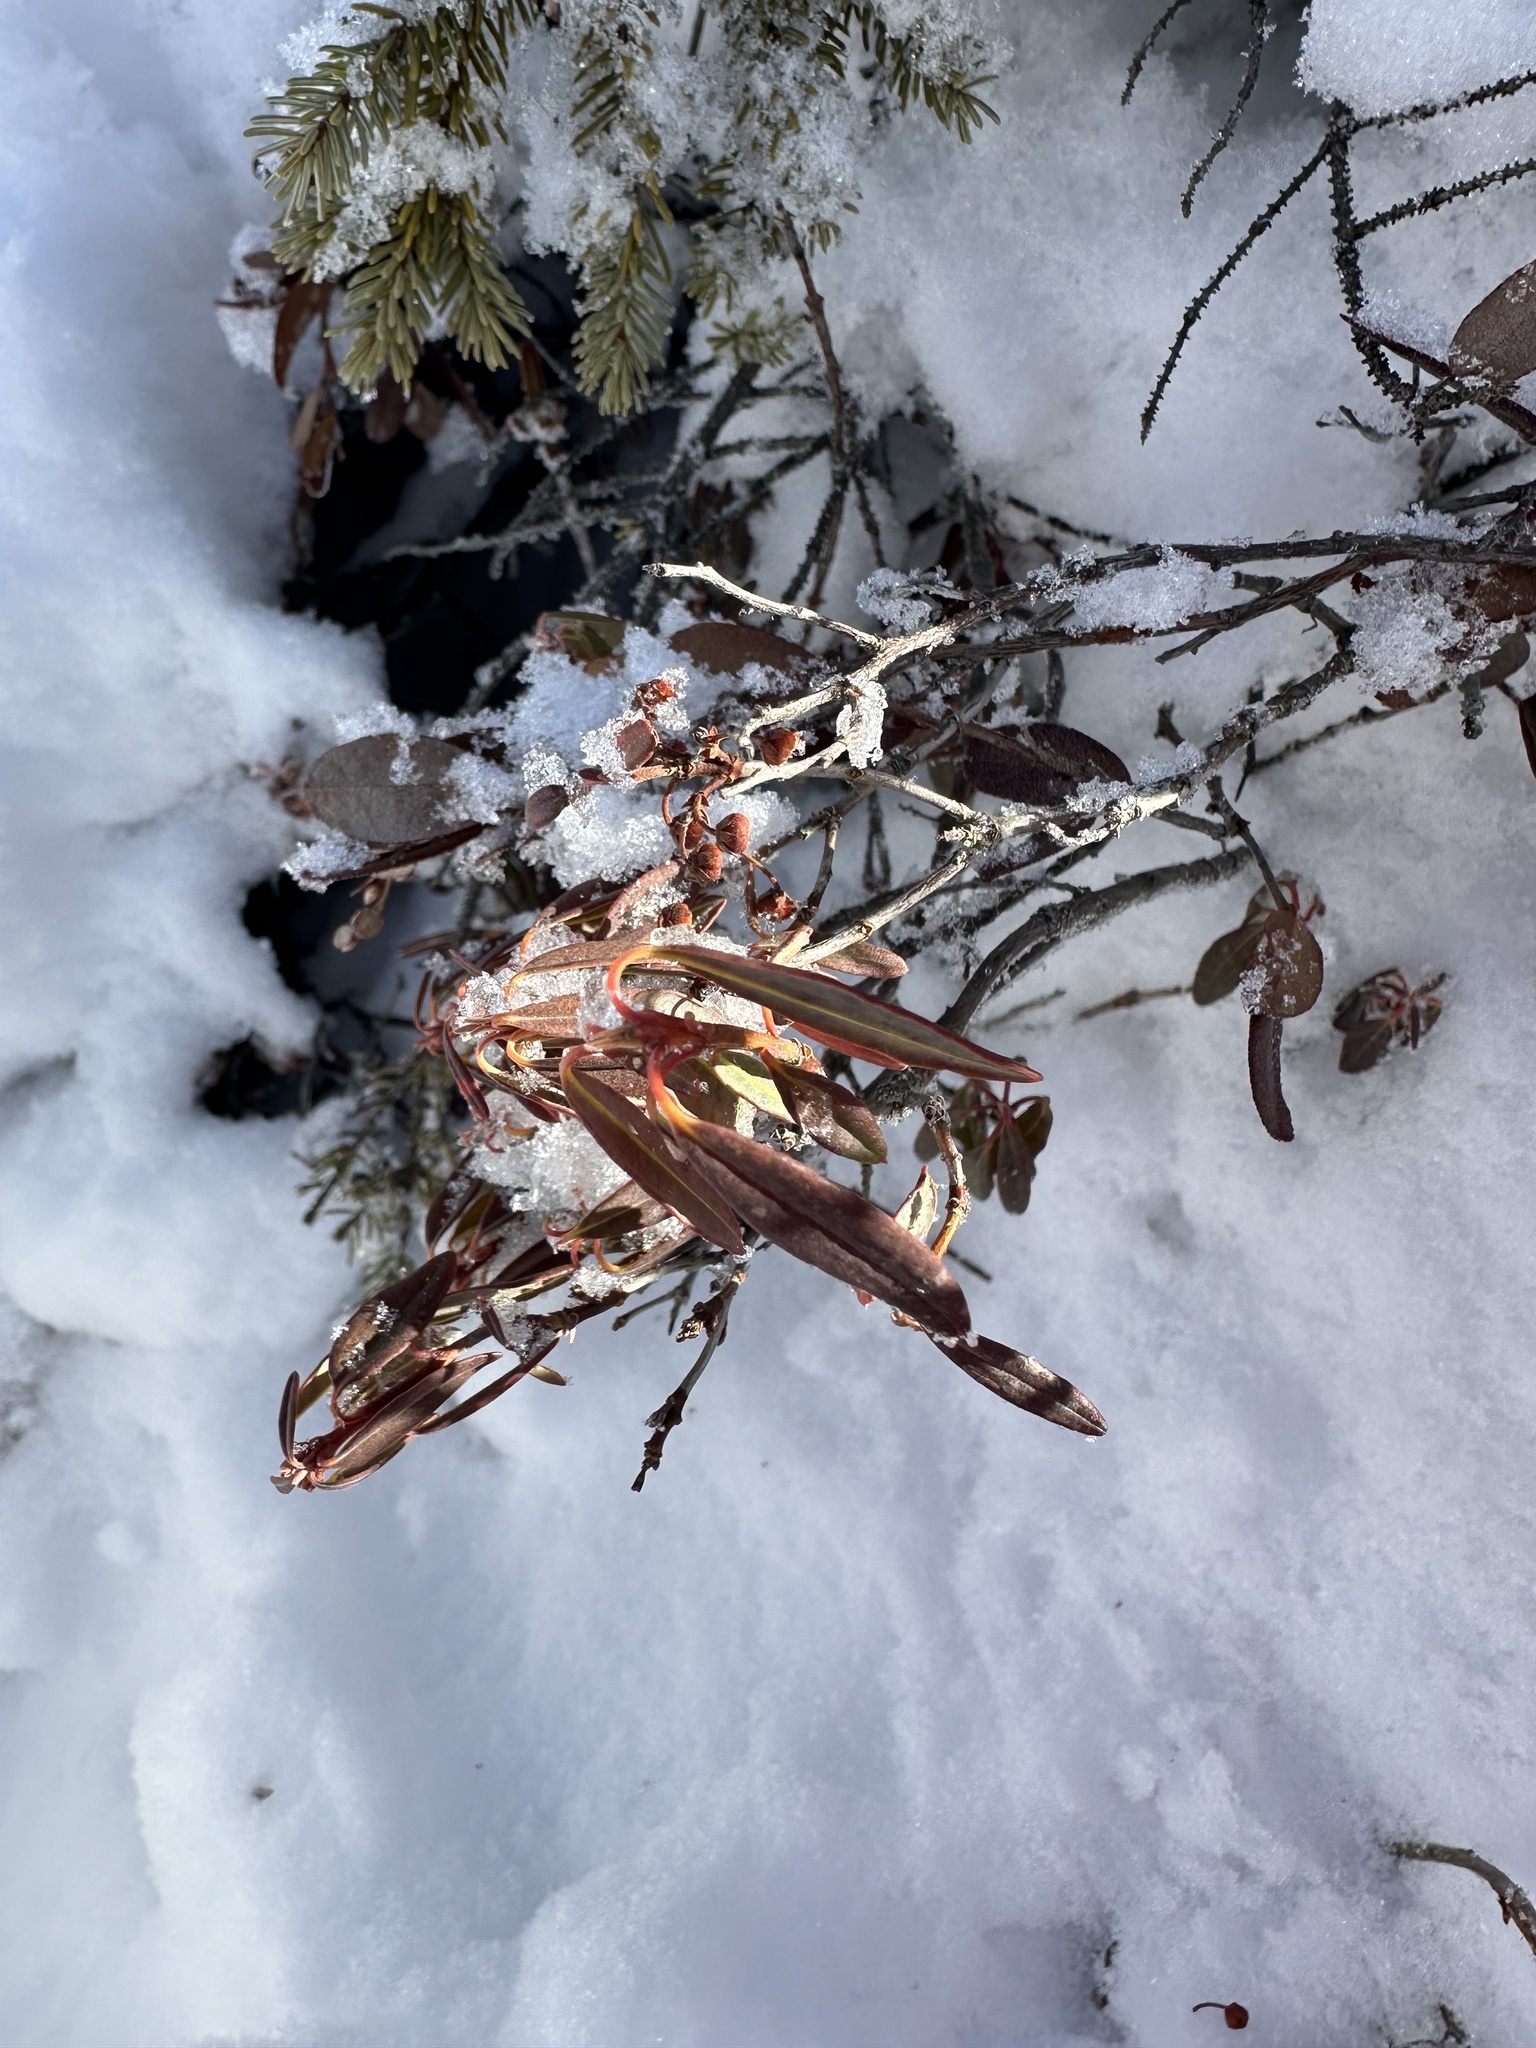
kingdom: Plantae
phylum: Tracheophyta
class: Magnoliopsida
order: Ericales
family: Ericaceae
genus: Rhododendron
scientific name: Rhododendron groenlandicum
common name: Bog labrador tea
